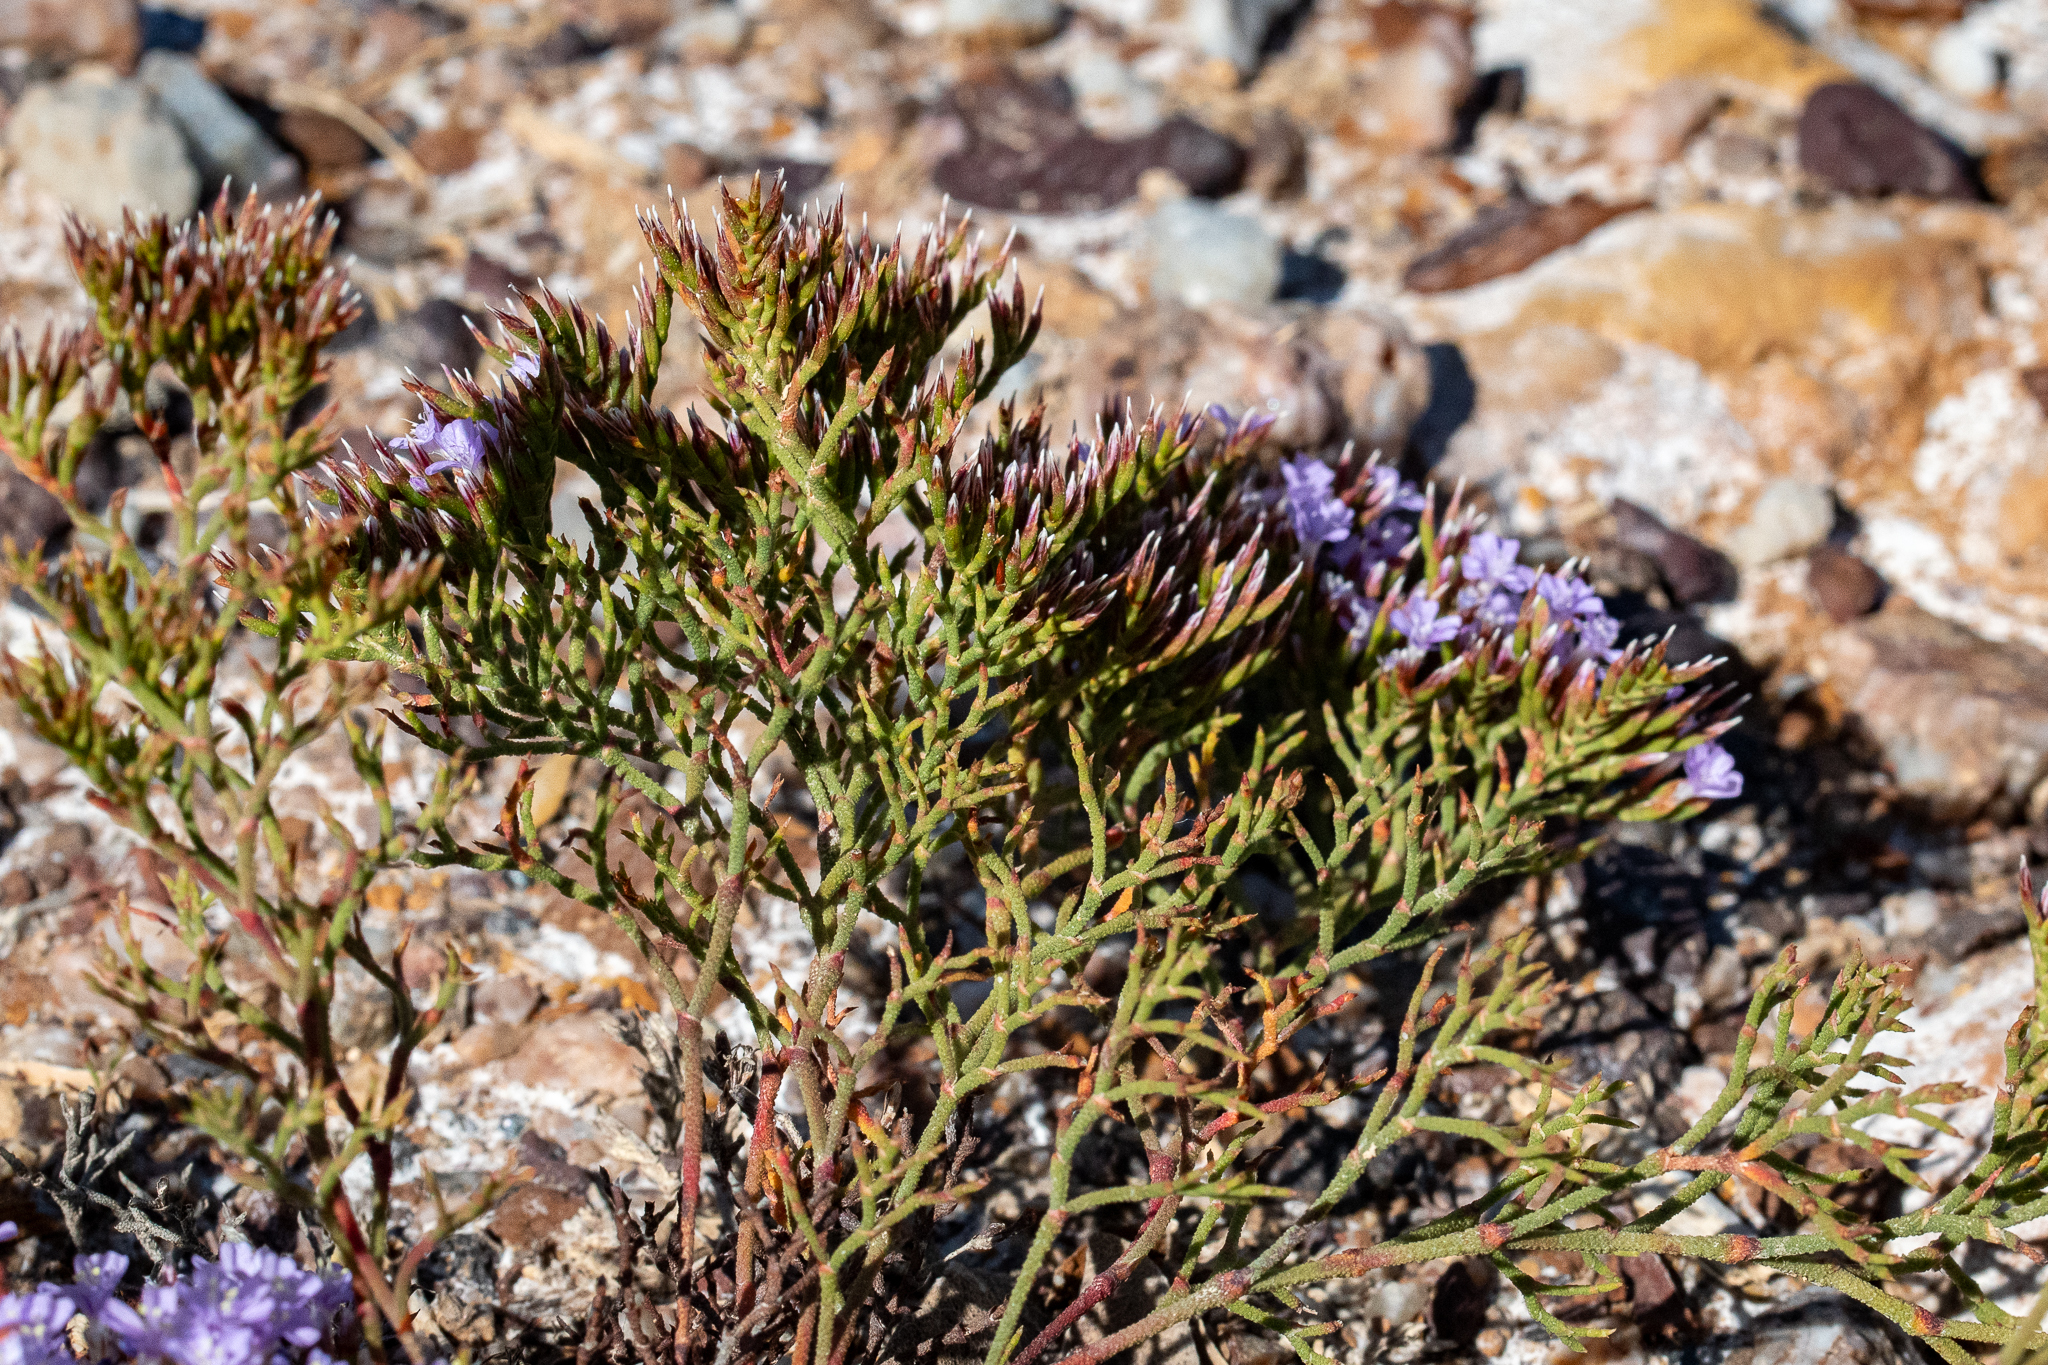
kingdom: Plantae
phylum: Tracheophyta
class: Magnoliopsida
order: Caryophyllales
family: Plumbaginaceae
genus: Limonium
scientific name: Limonium scabrum
